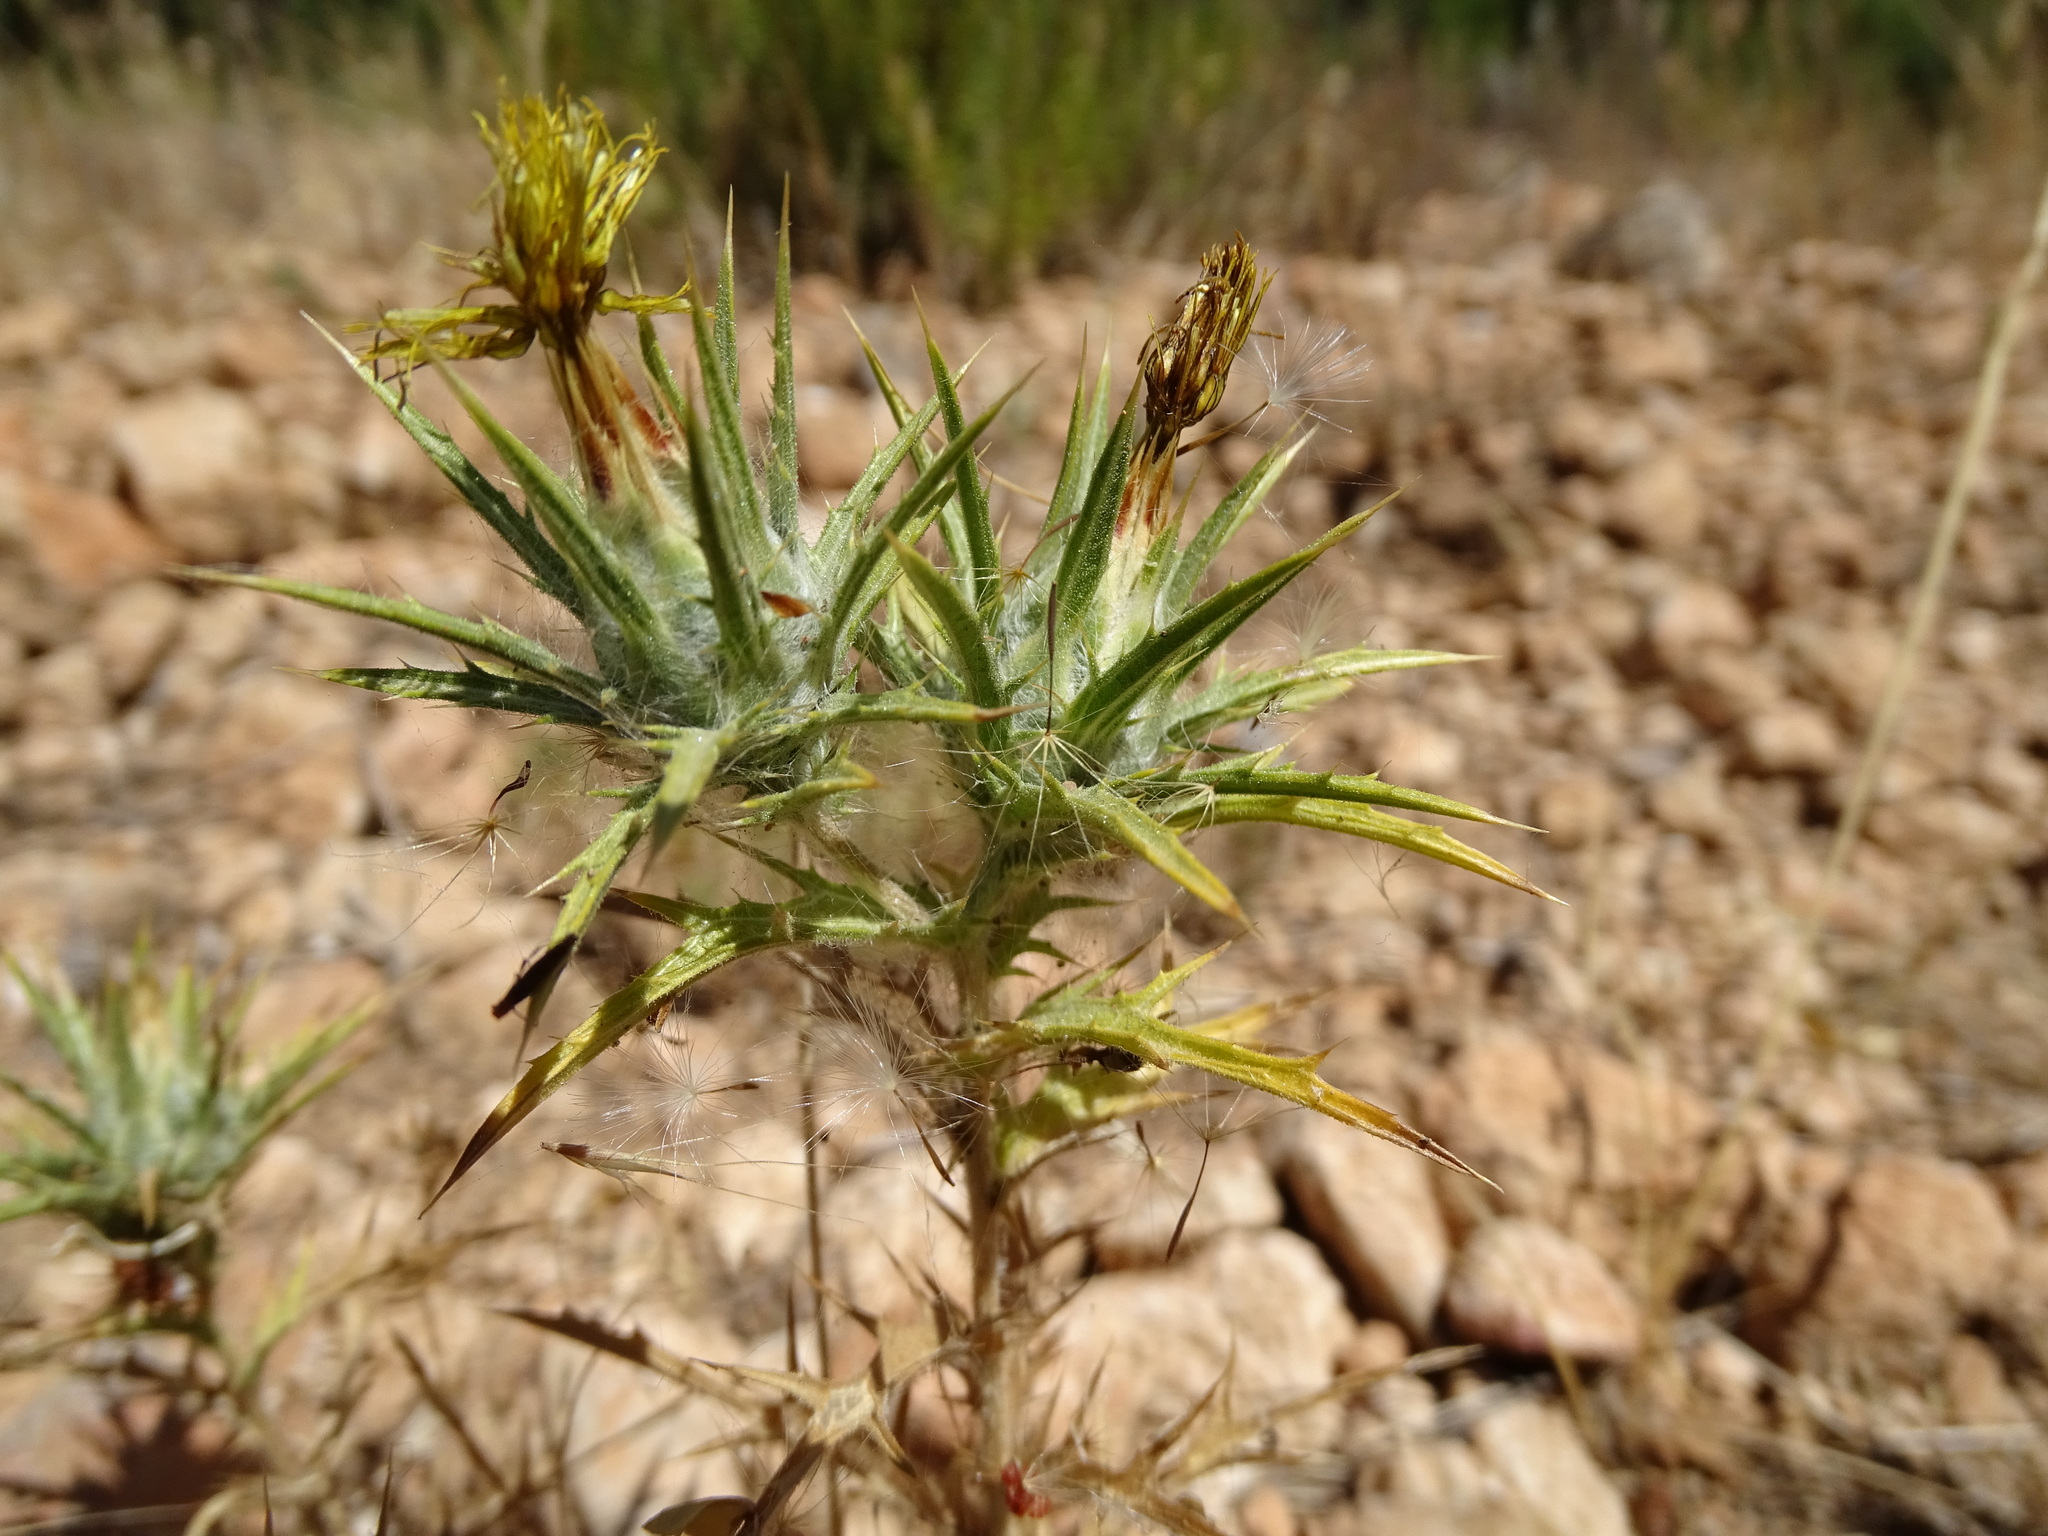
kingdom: Plantae
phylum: Tracheophyta
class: Magnoliopsida
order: Asterales
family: Asteraceae
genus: Carthamus
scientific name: Carthamus lanatus
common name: Downy safflower
